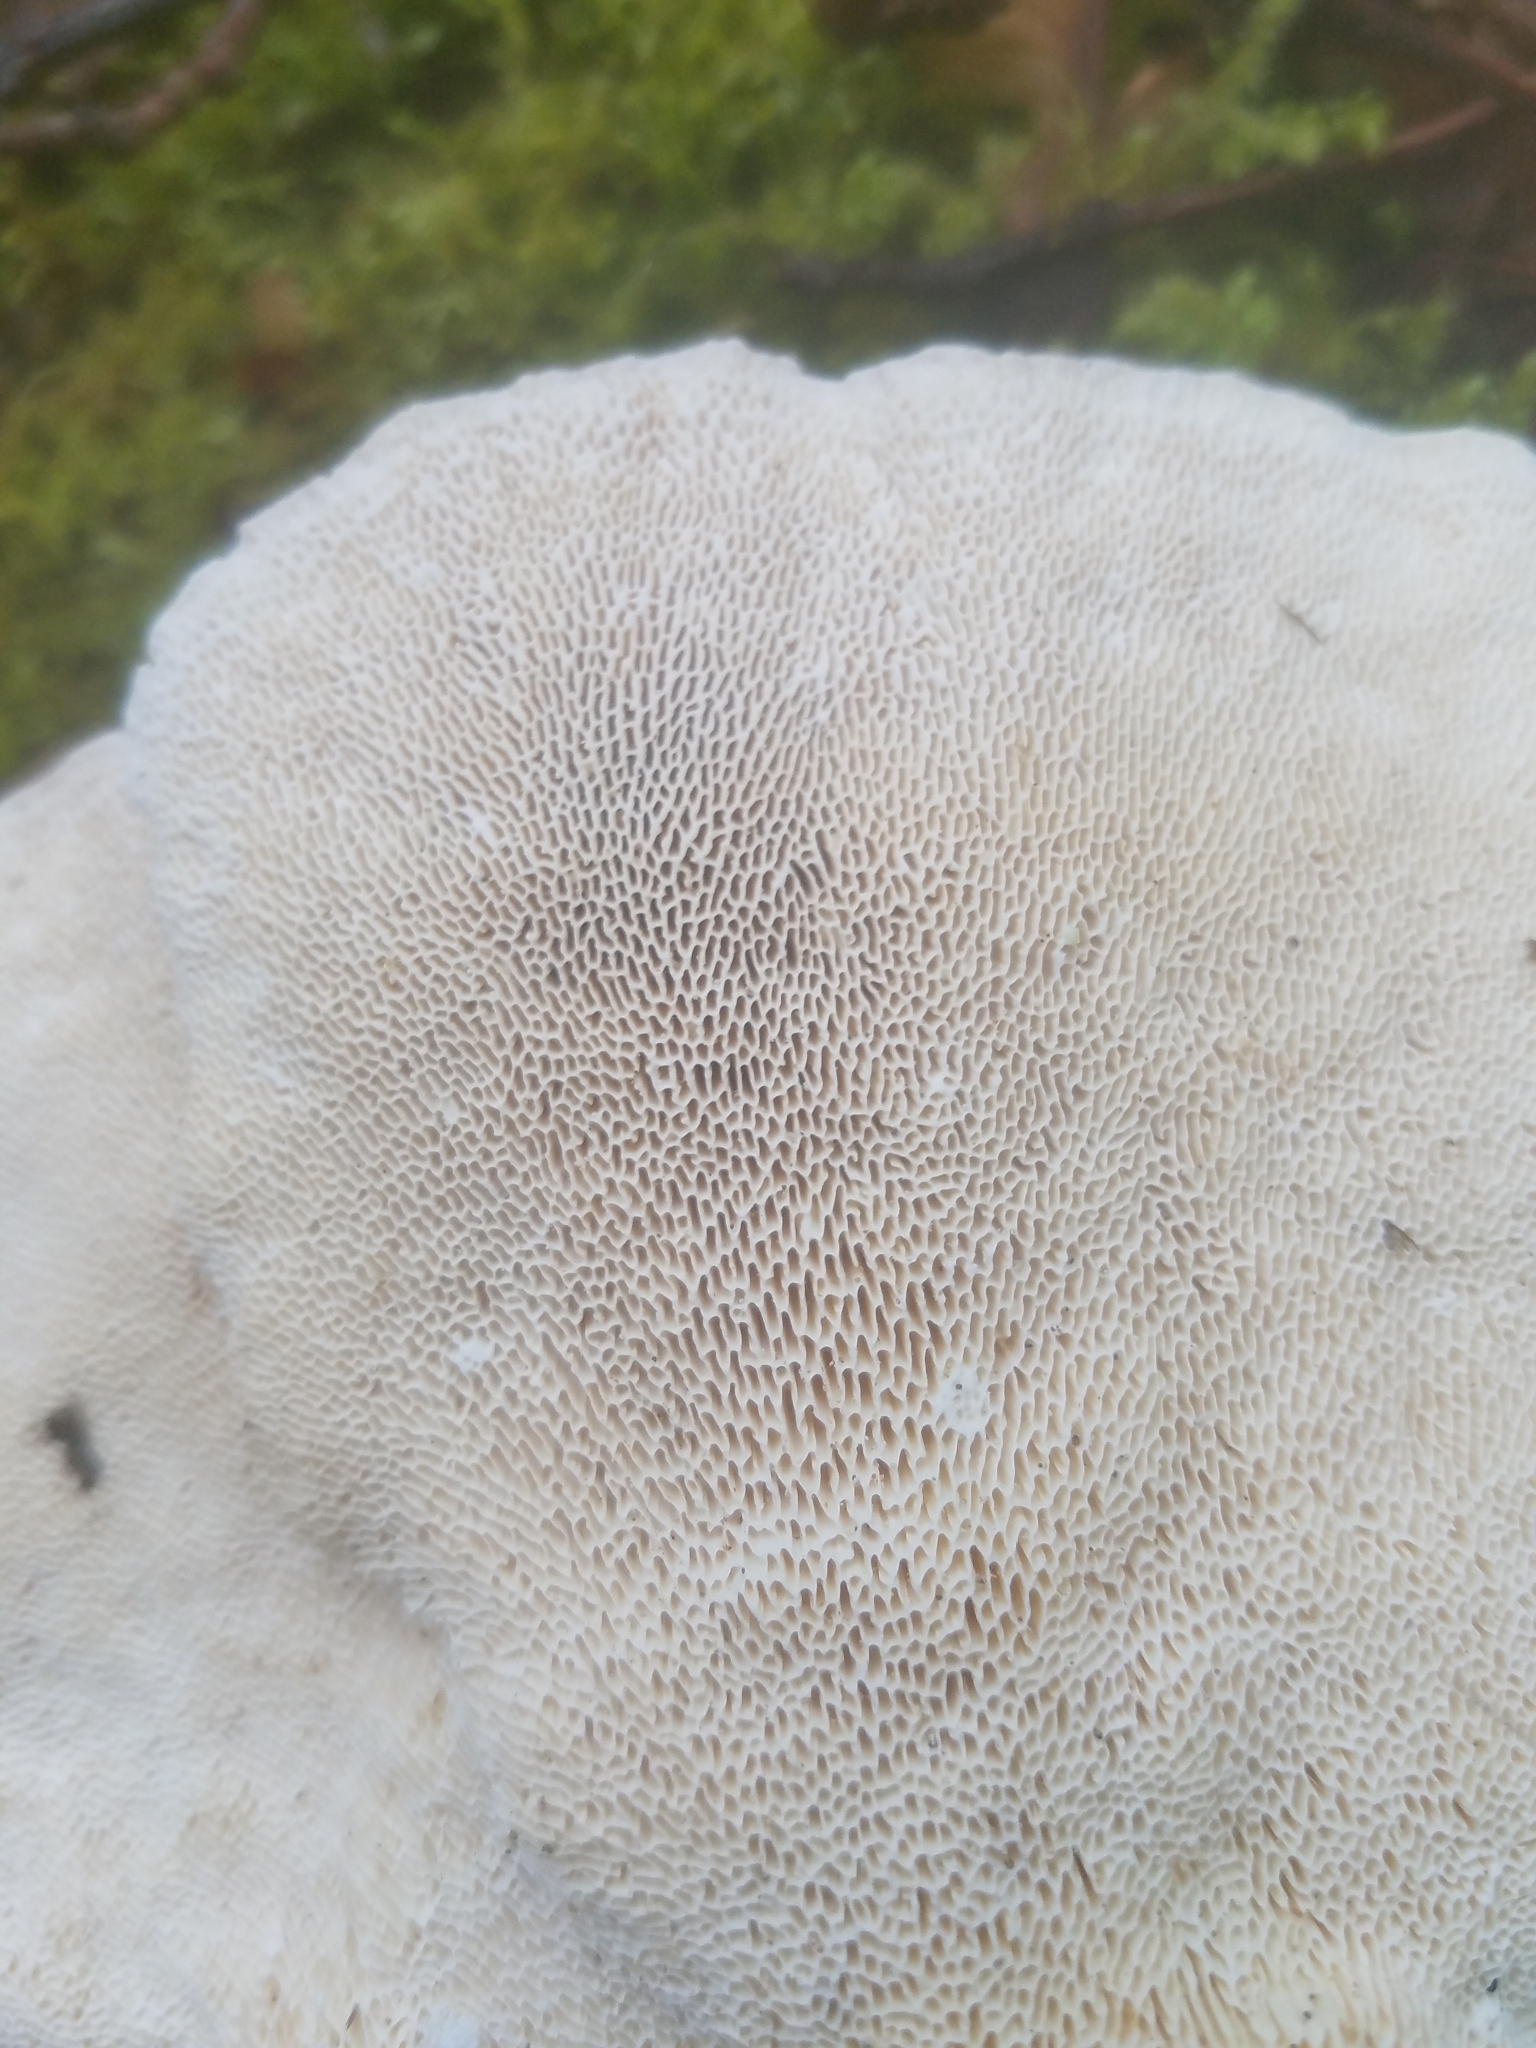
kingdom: Fungi
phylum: Basidiomycota
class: Agaricomycetes
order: Polyporales
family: Polyporaceae
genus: Trametes
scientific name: Trametes gibbosa
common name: Lumpy bracket
